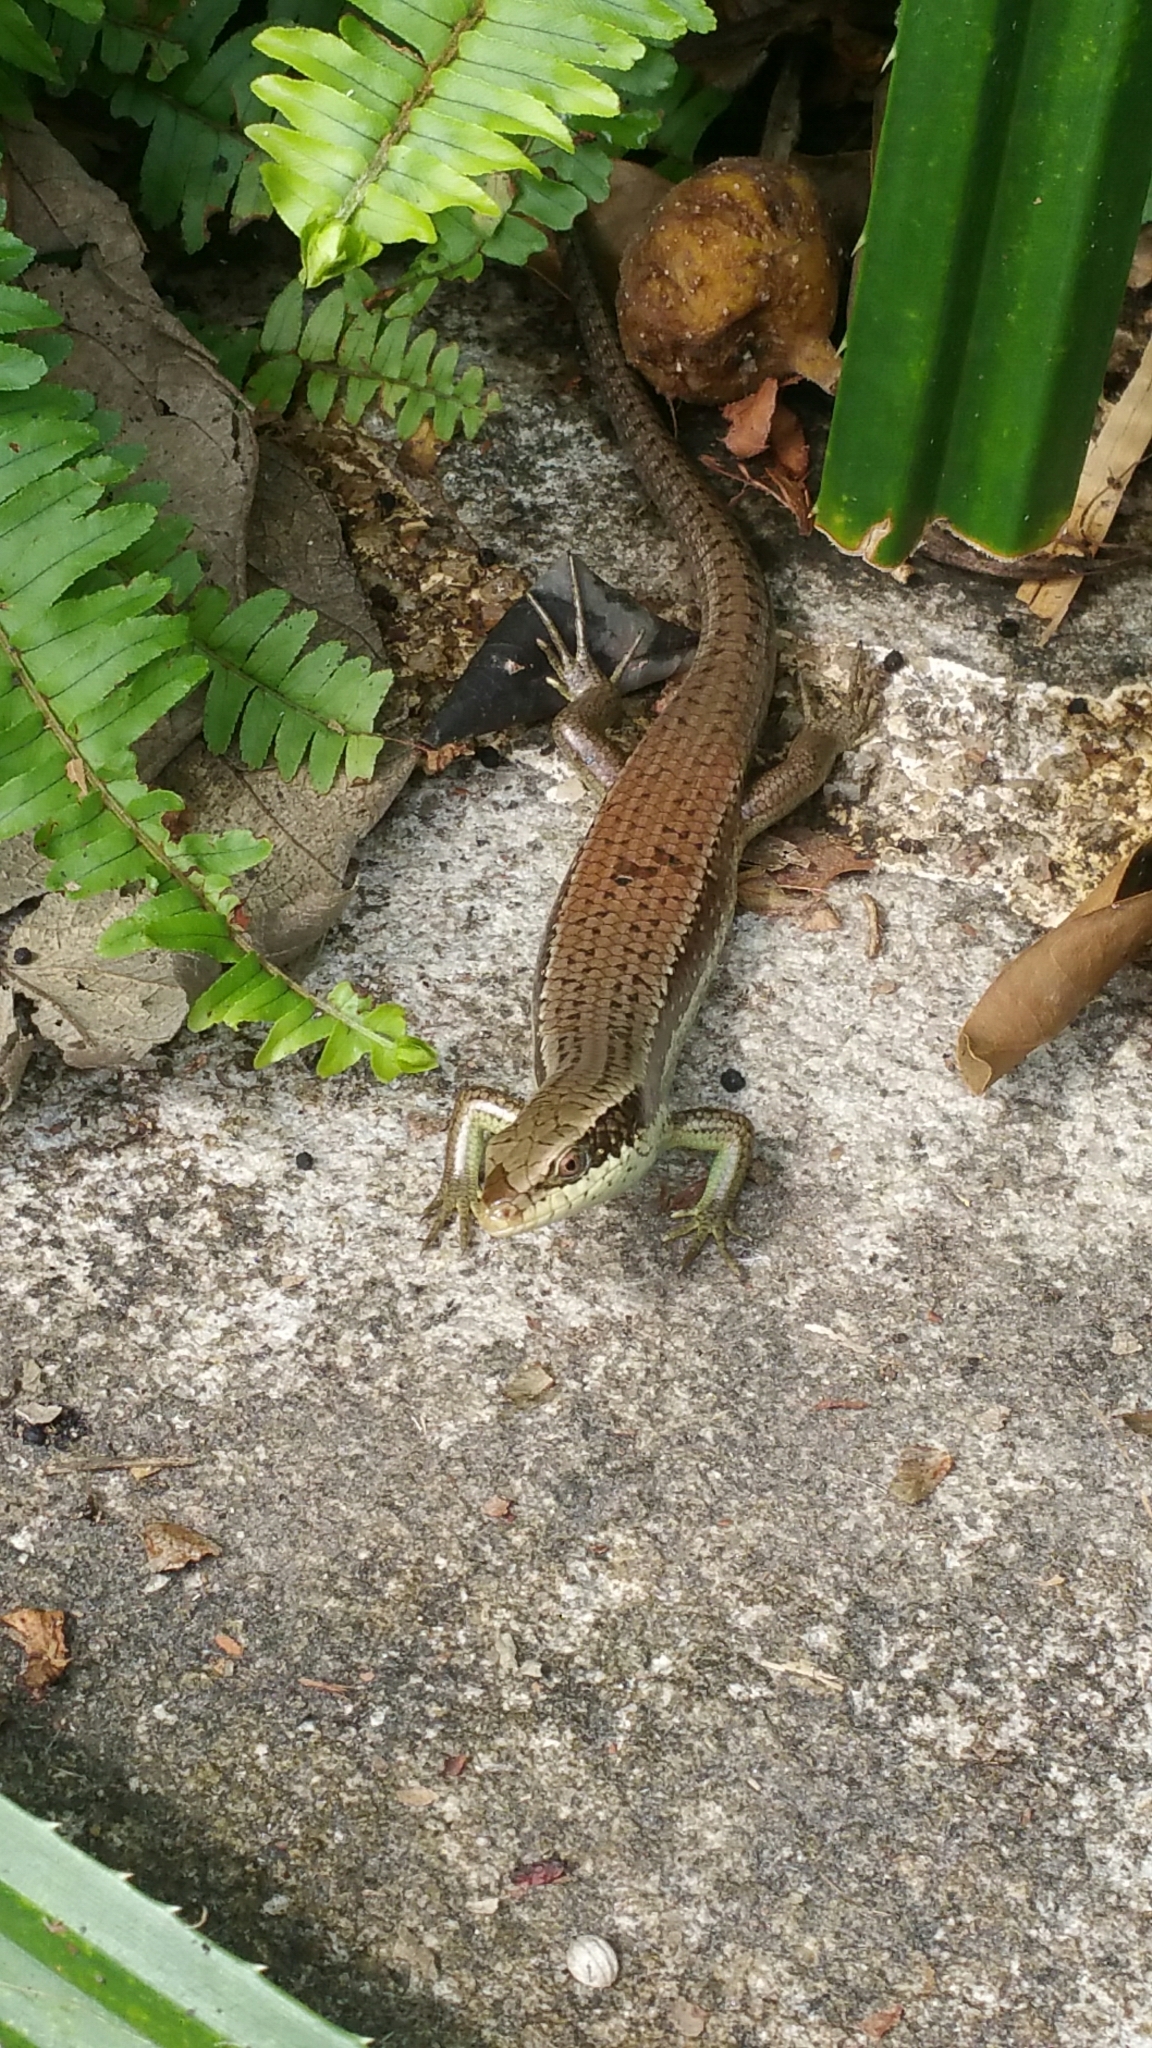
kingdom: Animalia
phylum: Chordata
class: Squamata
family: Scincidae
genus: Eutropis
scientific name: Eutropis longicaudata
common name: Long-tailed sun skink
